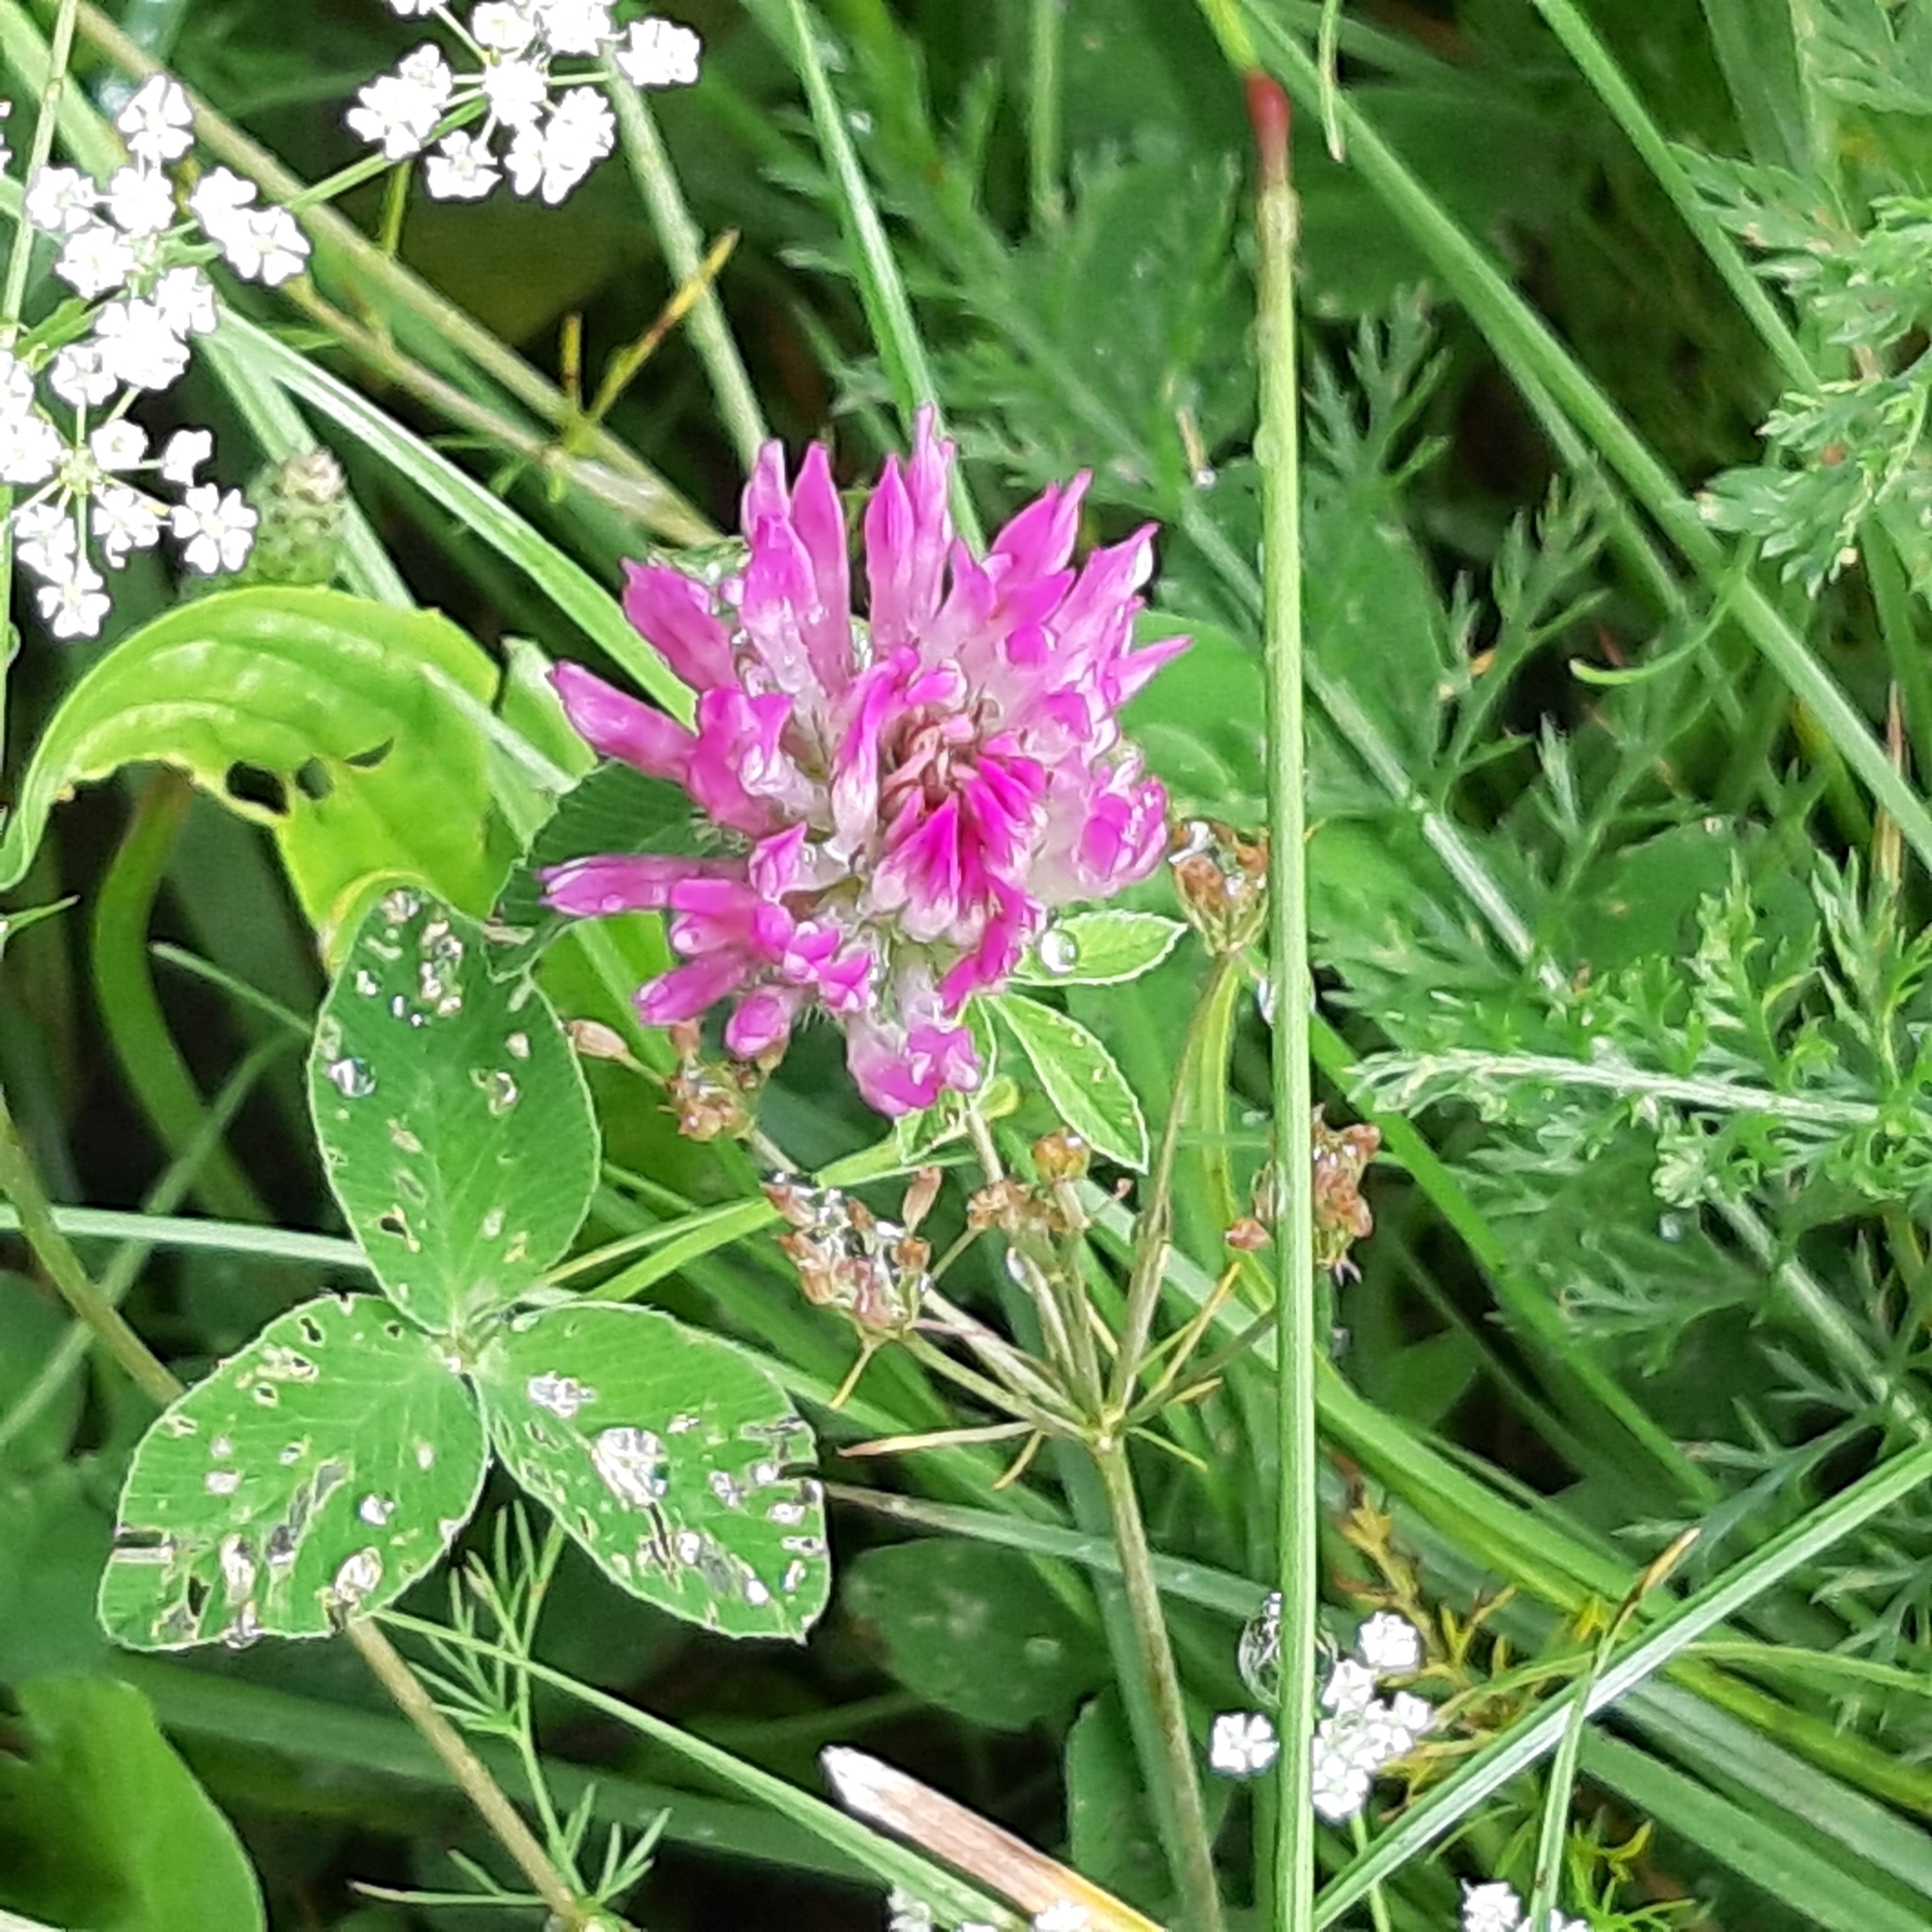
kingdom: Plantae
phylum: Tracheophyta
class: Magnoliopsida
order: Fabales
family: Fabaceae
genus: Trifolium
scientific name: Trifolium pratense
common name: Red clover
